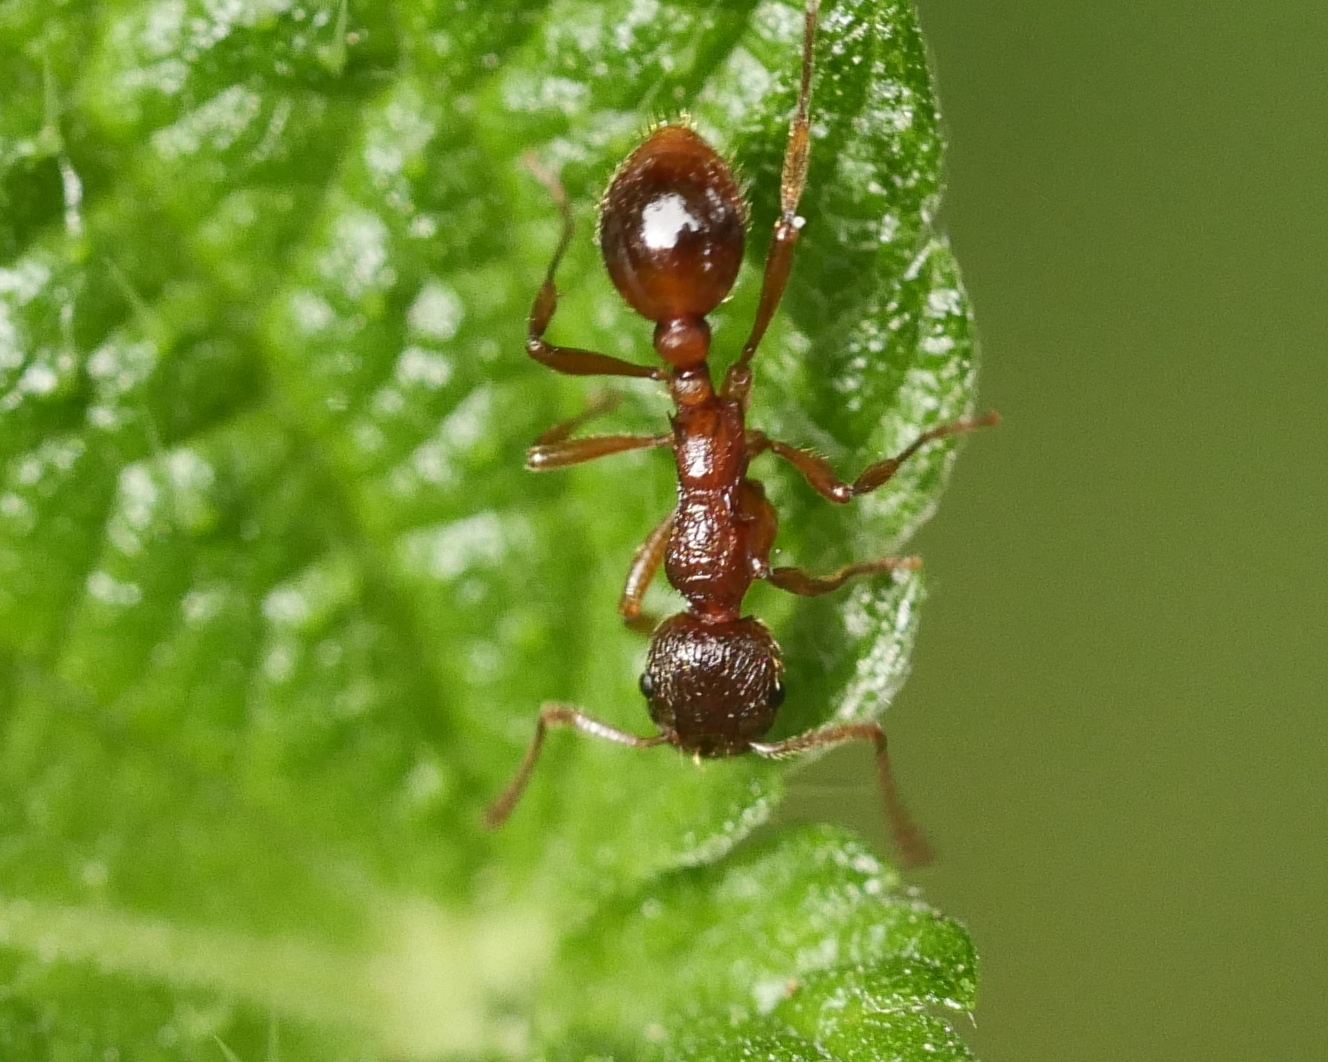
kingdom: Animalia
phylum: Arthropoda
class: Insecta
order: Hymenoptera
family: Formicidae
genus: Myrmica
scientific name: Myrmica rubra
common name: European fire ant
